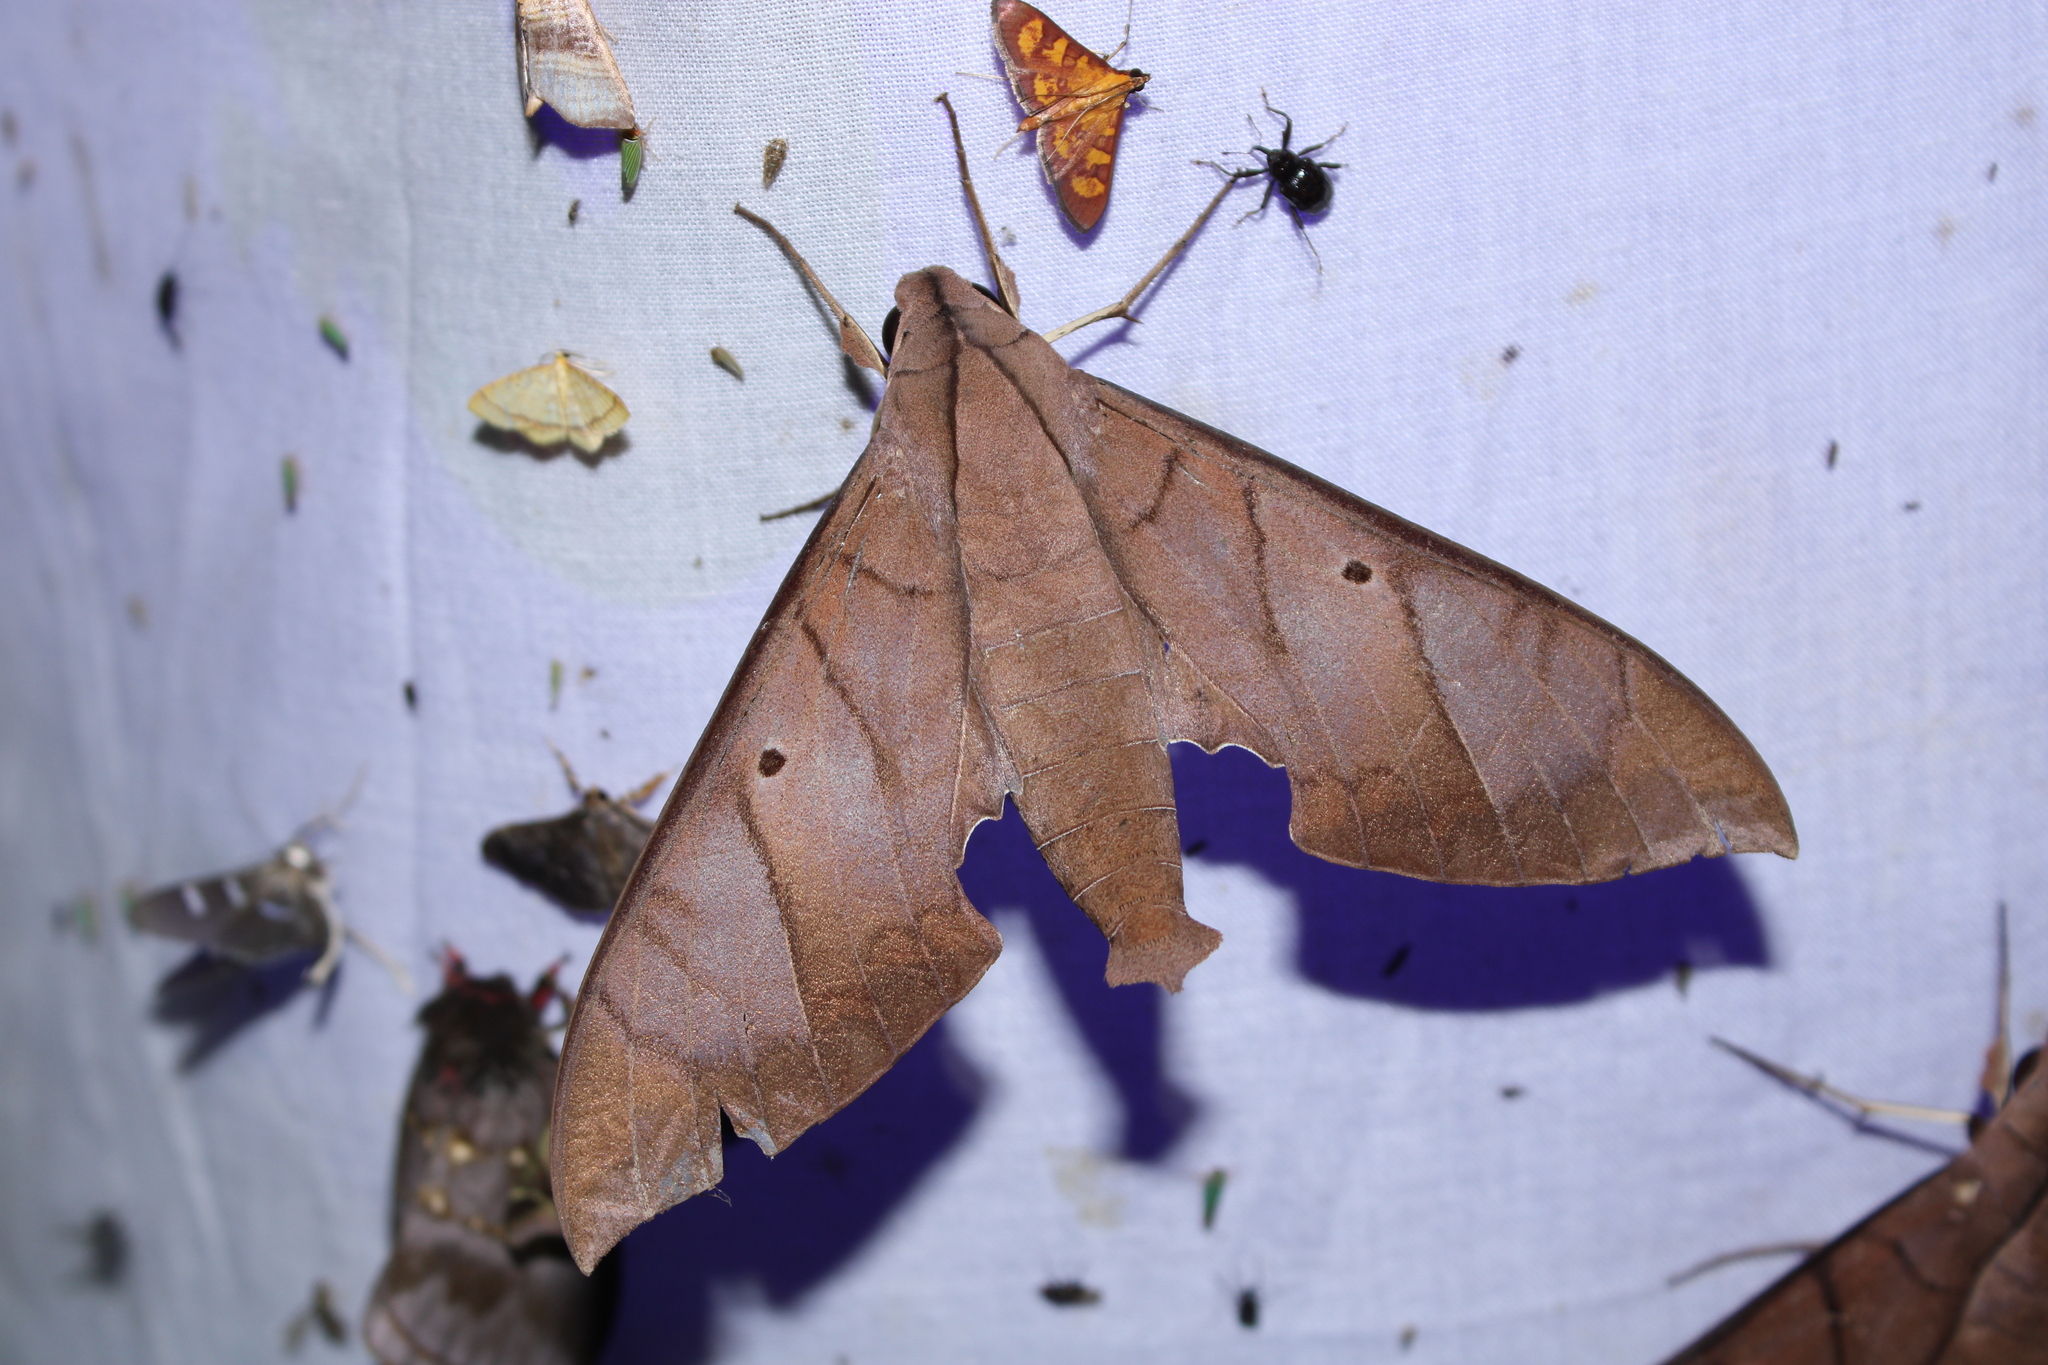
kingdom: Animalia
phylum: Arthropoda
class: Insecta
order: Lepidoptera
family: Sphingidae
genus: Pachylia
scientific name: Pachylia darceta
